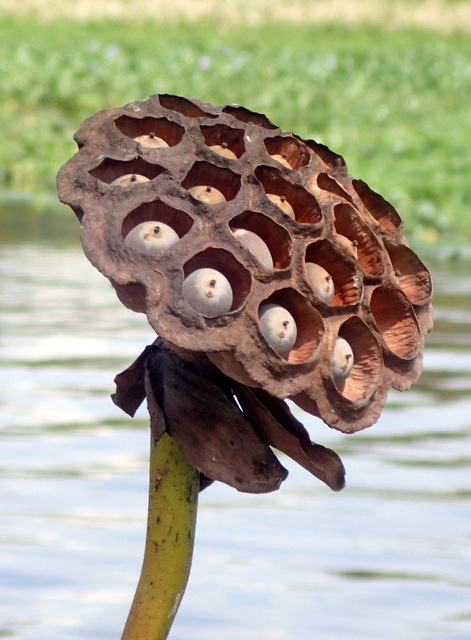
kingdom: Plantae
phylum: Tracheophyta
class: Magnoliopsida
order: Proteales
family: Nelumbonaceae
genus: Nelumbo
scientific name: Nelumbo lutea
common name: American lotus
